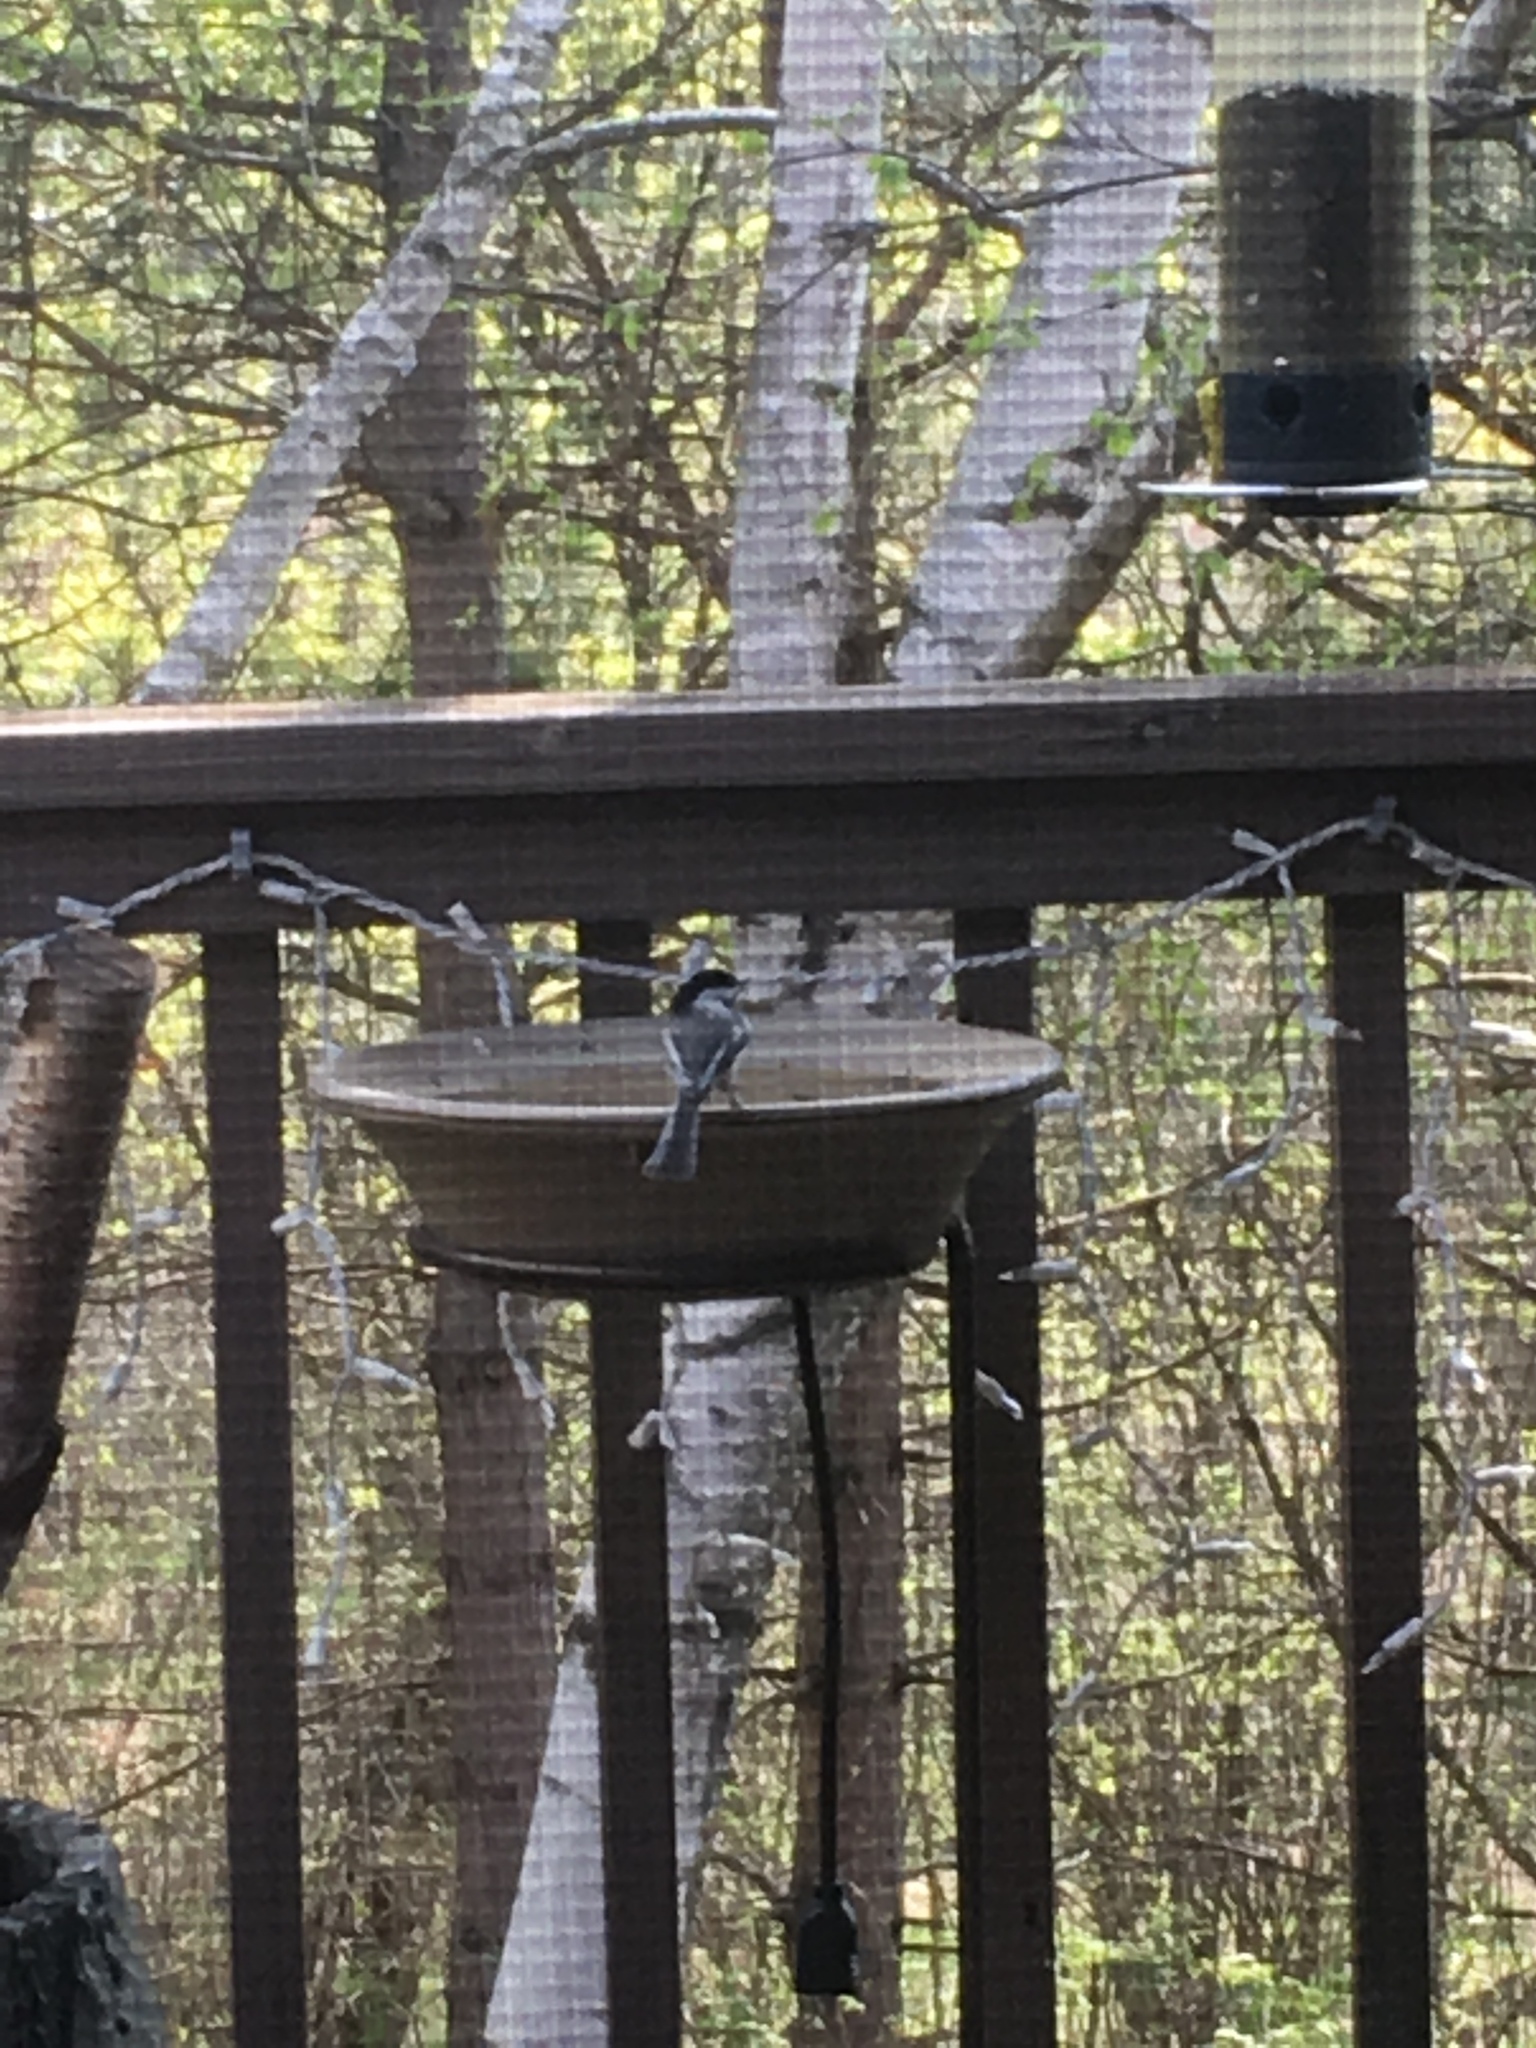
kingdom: Animalia
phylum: Chordata
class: Aves
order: Passeriformes
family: Paridae
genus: Poecile
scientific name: Poecile atricapillus
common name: Black-capped chickadee
